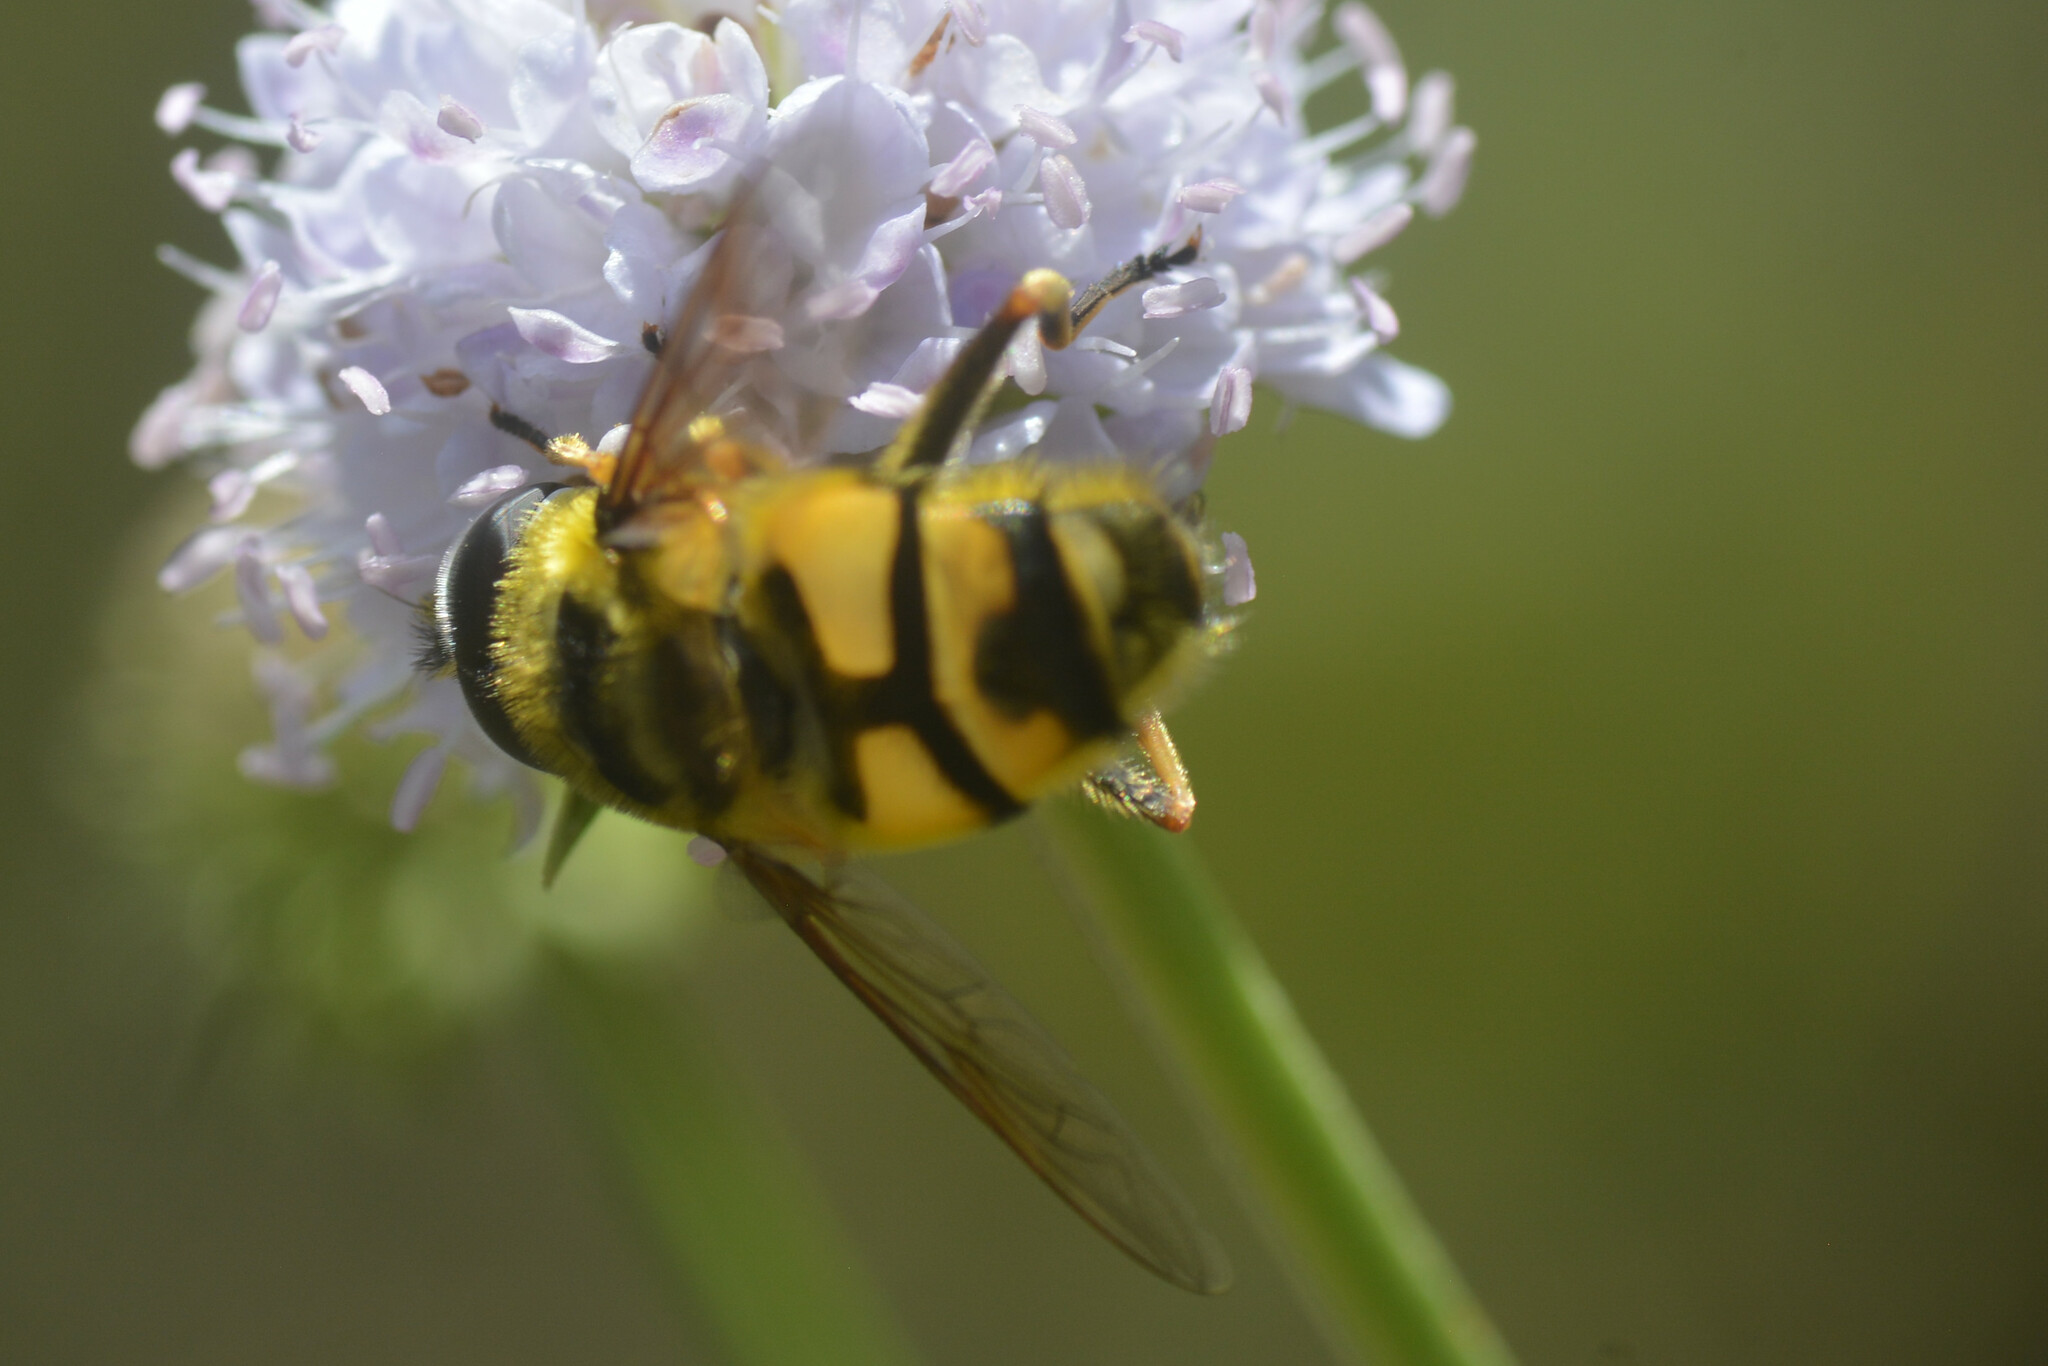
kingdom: Animalia
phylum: Arthropoda
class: Insecta
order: Diptera
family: Syrphidae
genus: Myathropa
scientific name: Myathropa florea
